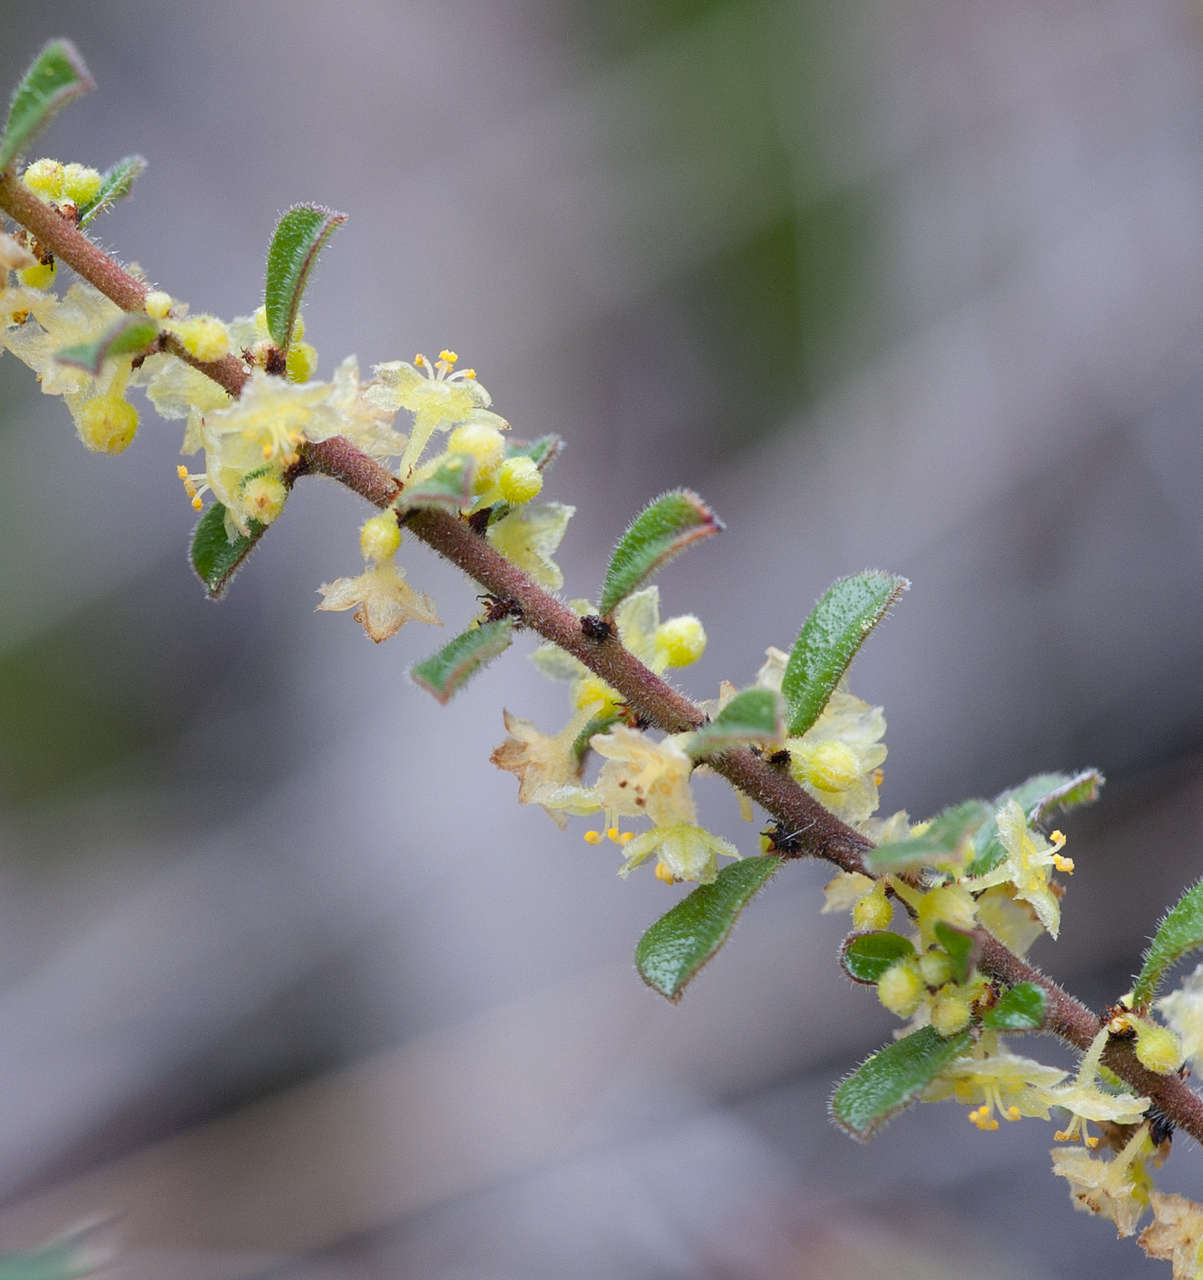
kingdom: Plantae
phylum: Tracheophyta
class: Magnoliopsida
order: Malpighiales
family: Phyllanthaceae
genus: Phyllanthus
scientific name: Phyllanthus hirtellus
